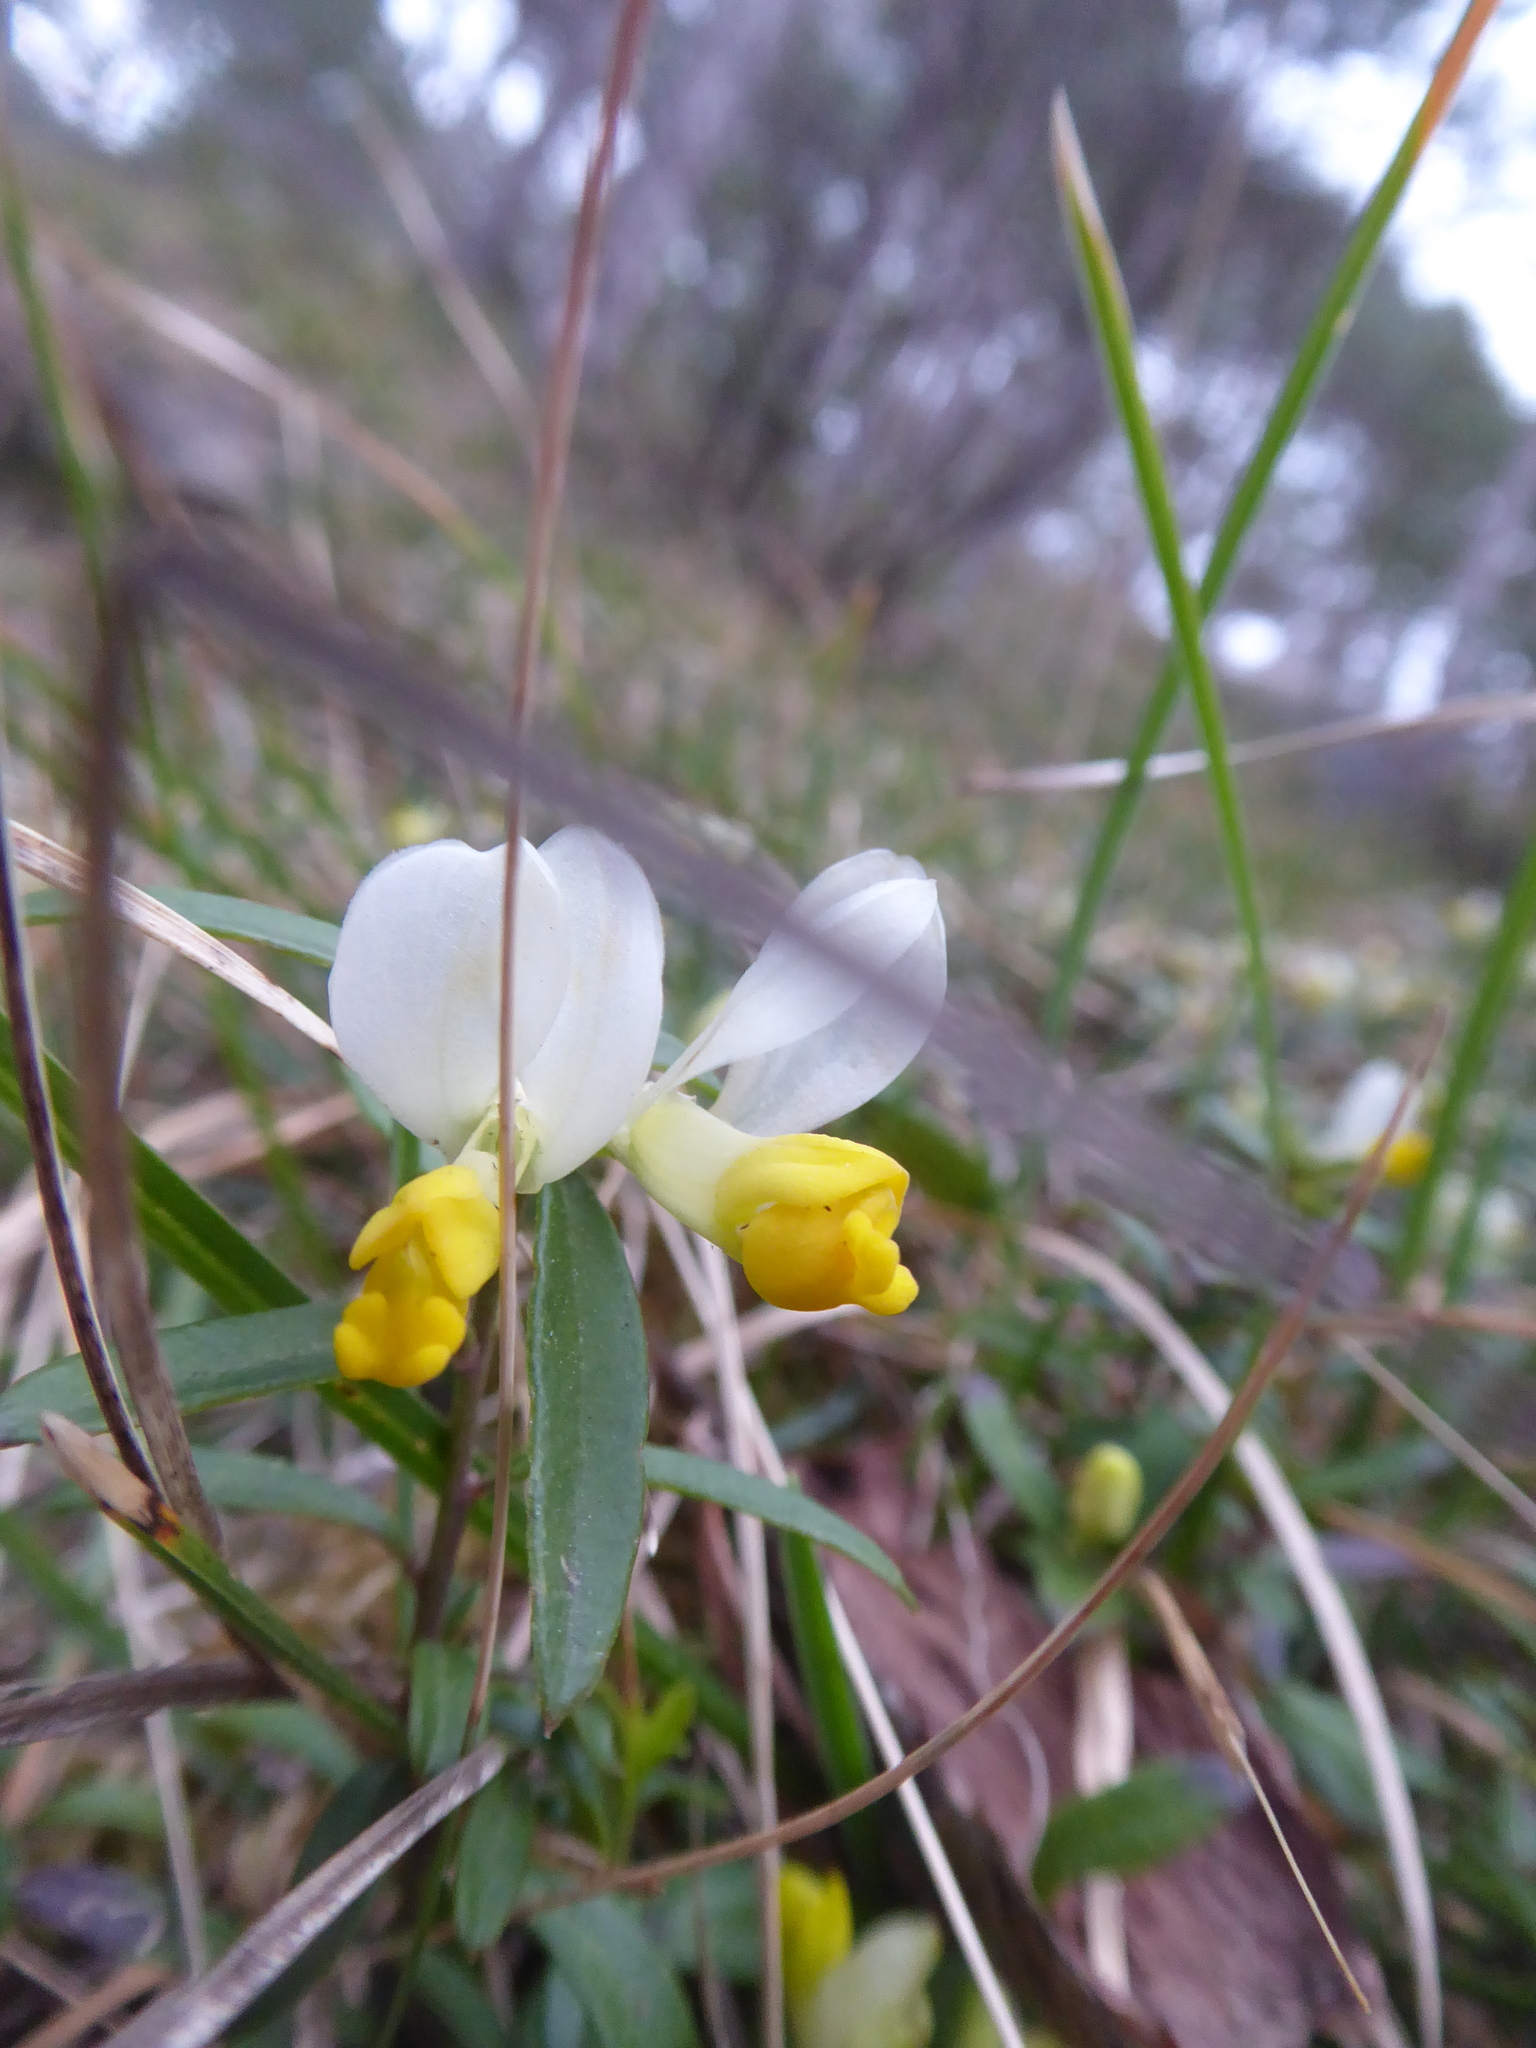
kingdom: Plantae
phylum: Tracheophyta
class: Magnoliopsida
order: Fabales
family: Polygalaceae
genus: Polygaloides
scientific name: Polygaloides chamaebuxus
